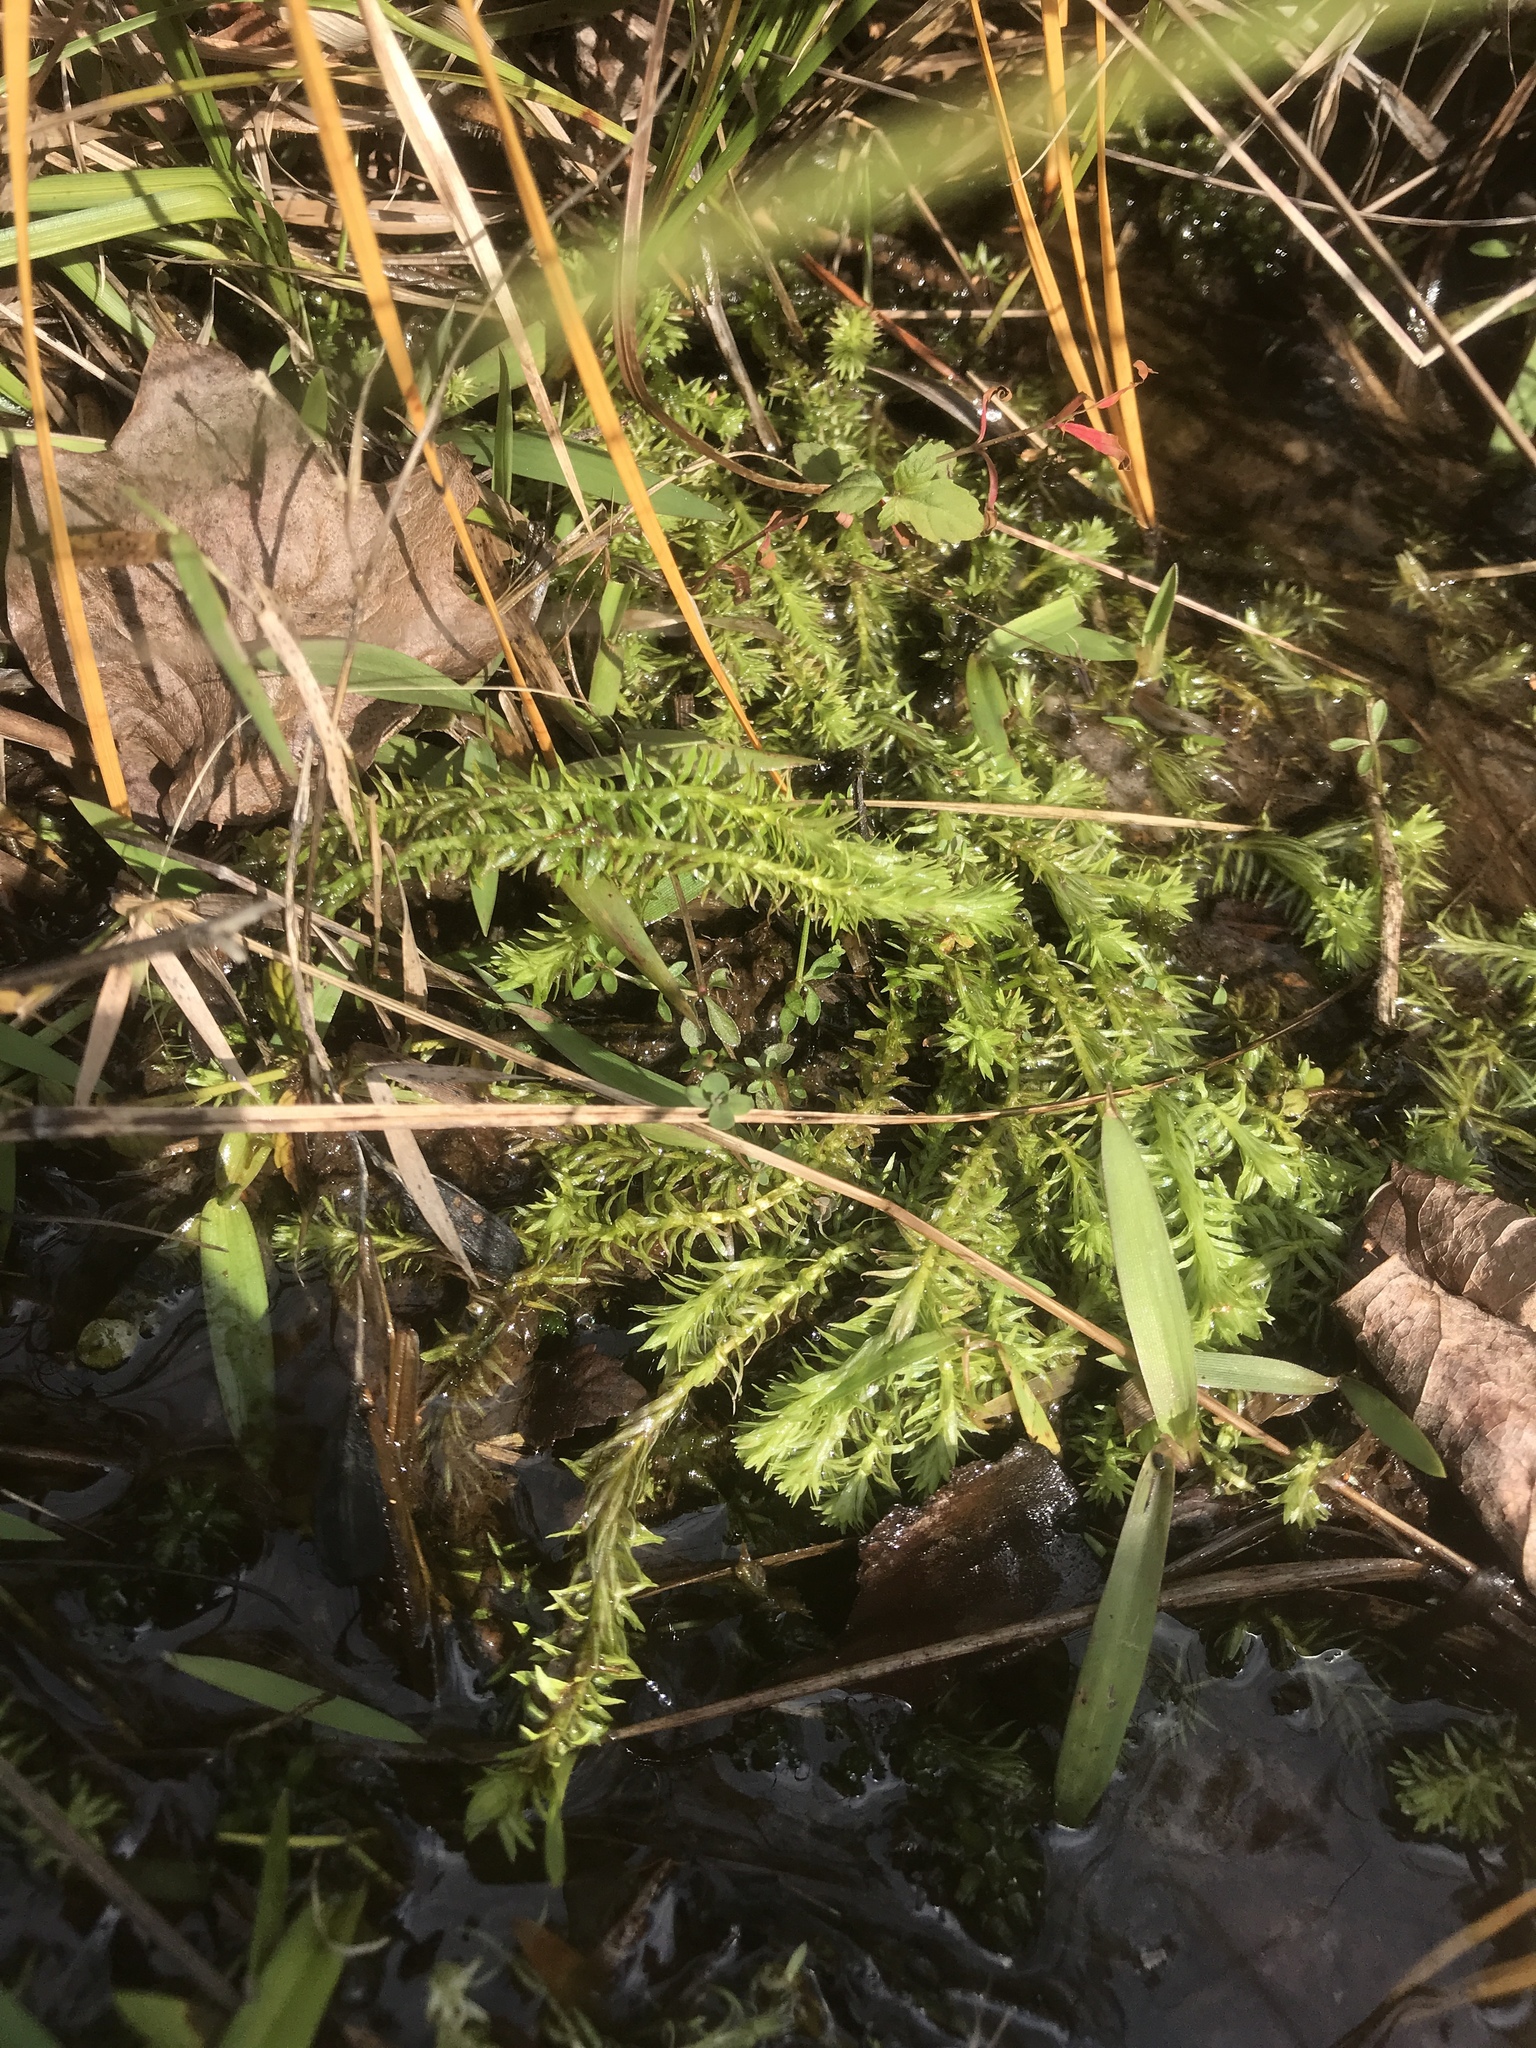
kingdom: Plantae
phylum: Tracheophyta
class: Liliopsida
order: Poales
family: Mayacaceae
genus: Mayaca
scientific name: Mayaca fluviatilis
